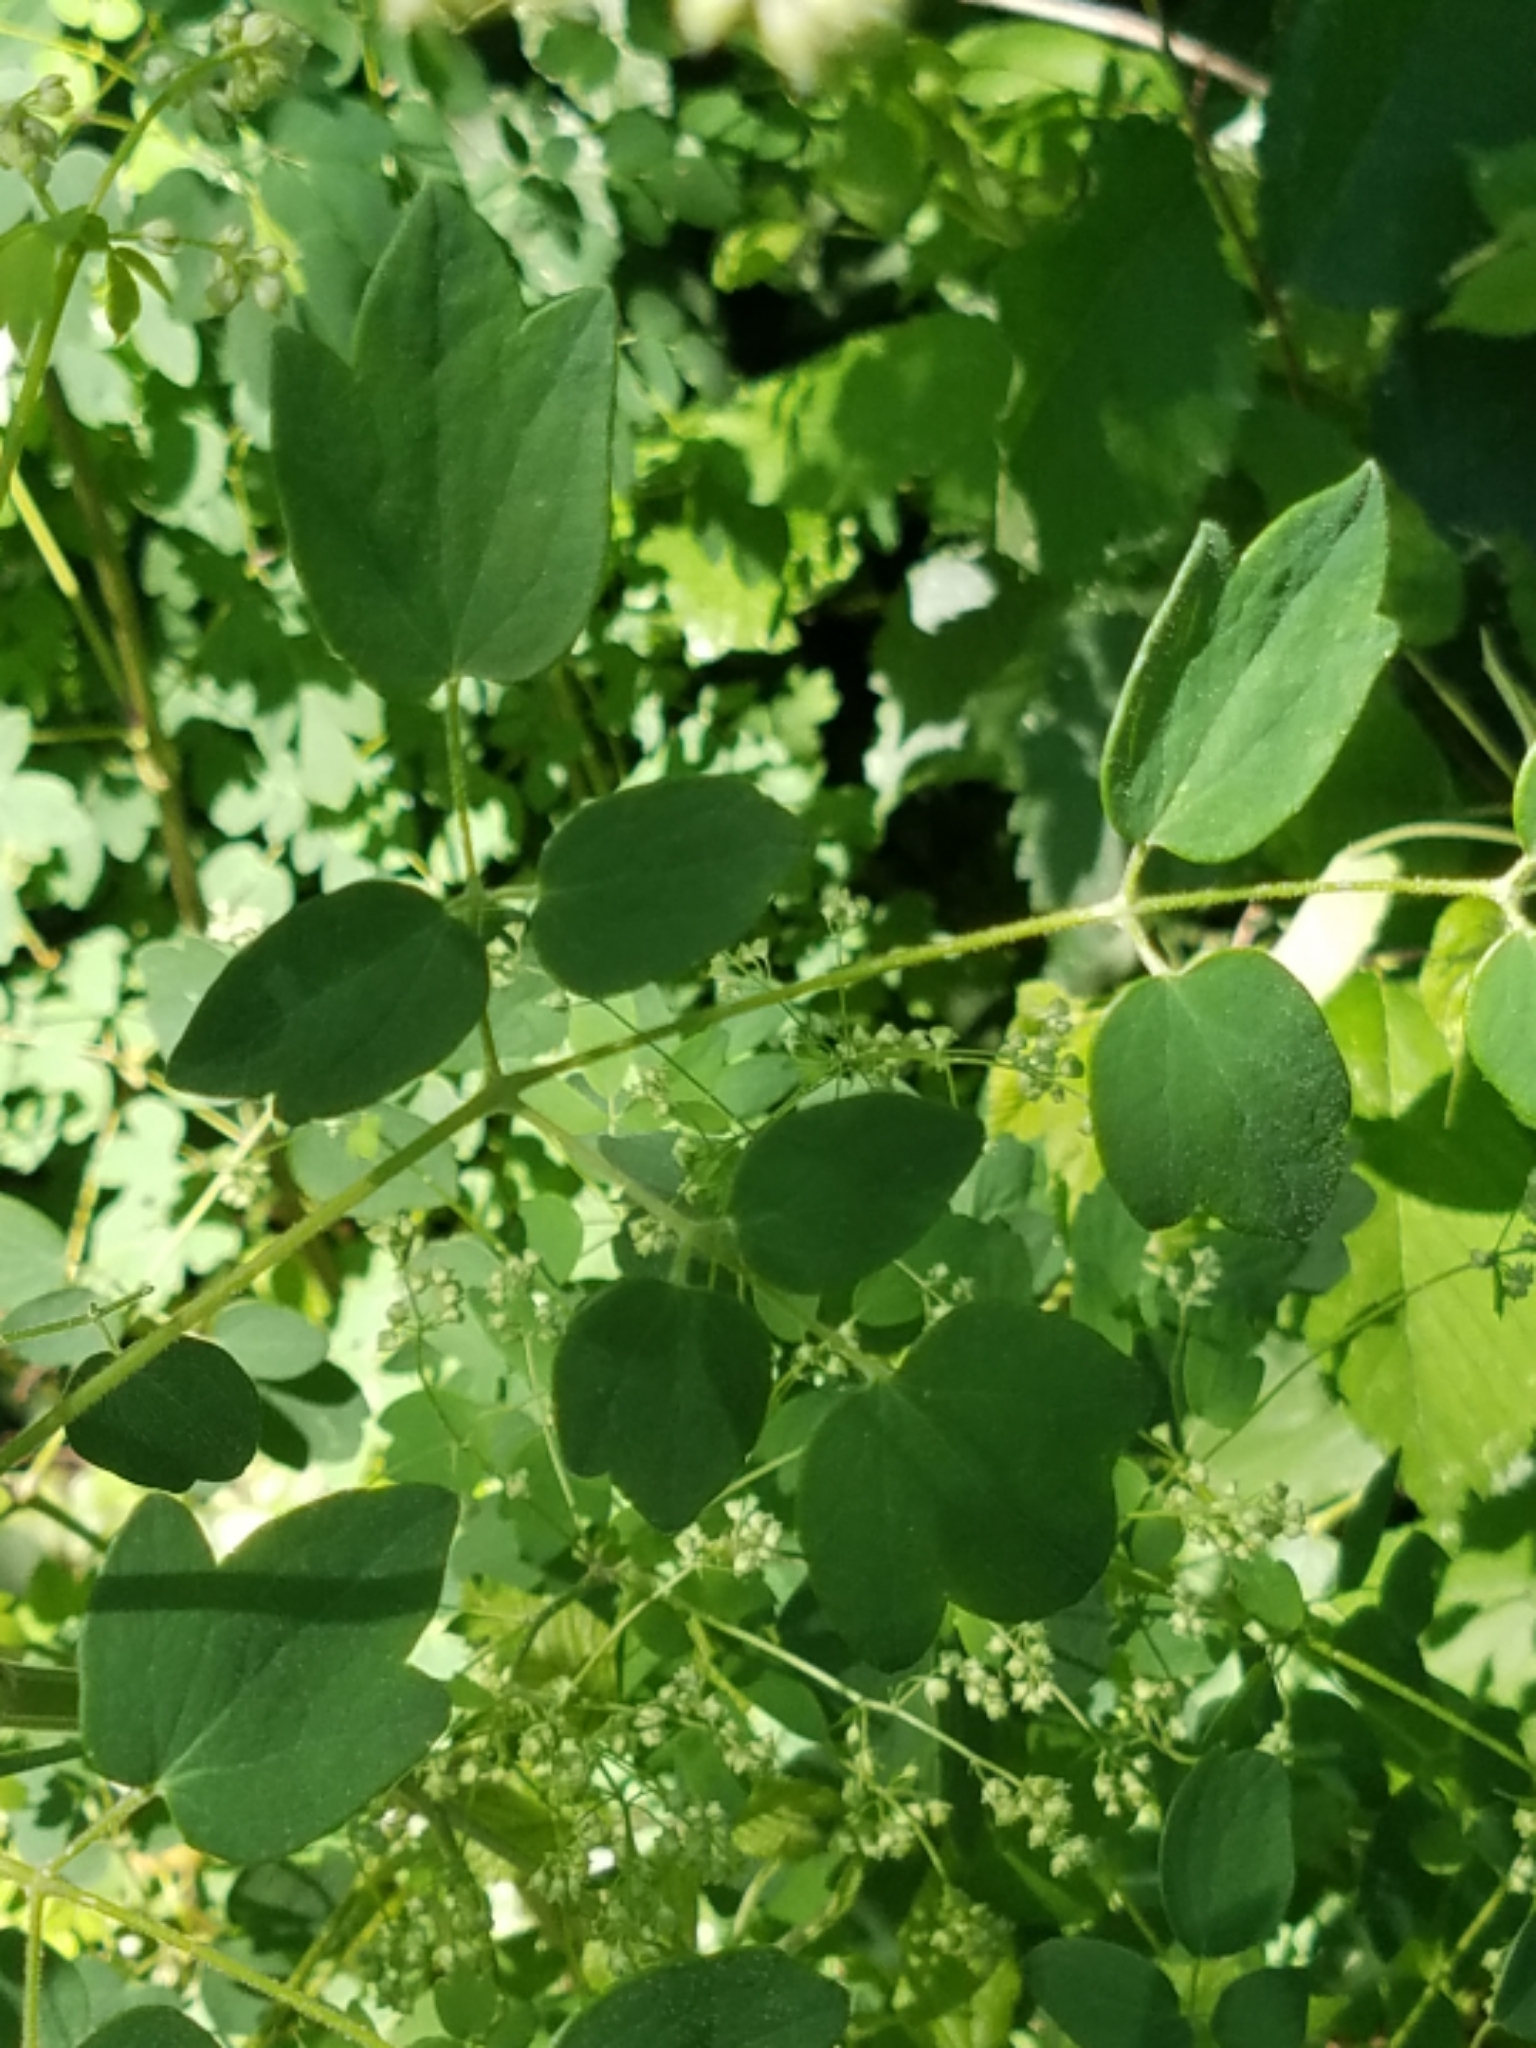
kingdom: Plantae
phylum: Tracheophyta
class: Magnoliopsida
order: Ranunculales
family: Ranunculaceae
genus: Thalictrum
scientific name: Thalictrum dasycarpum
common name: Purple meadow-rue
